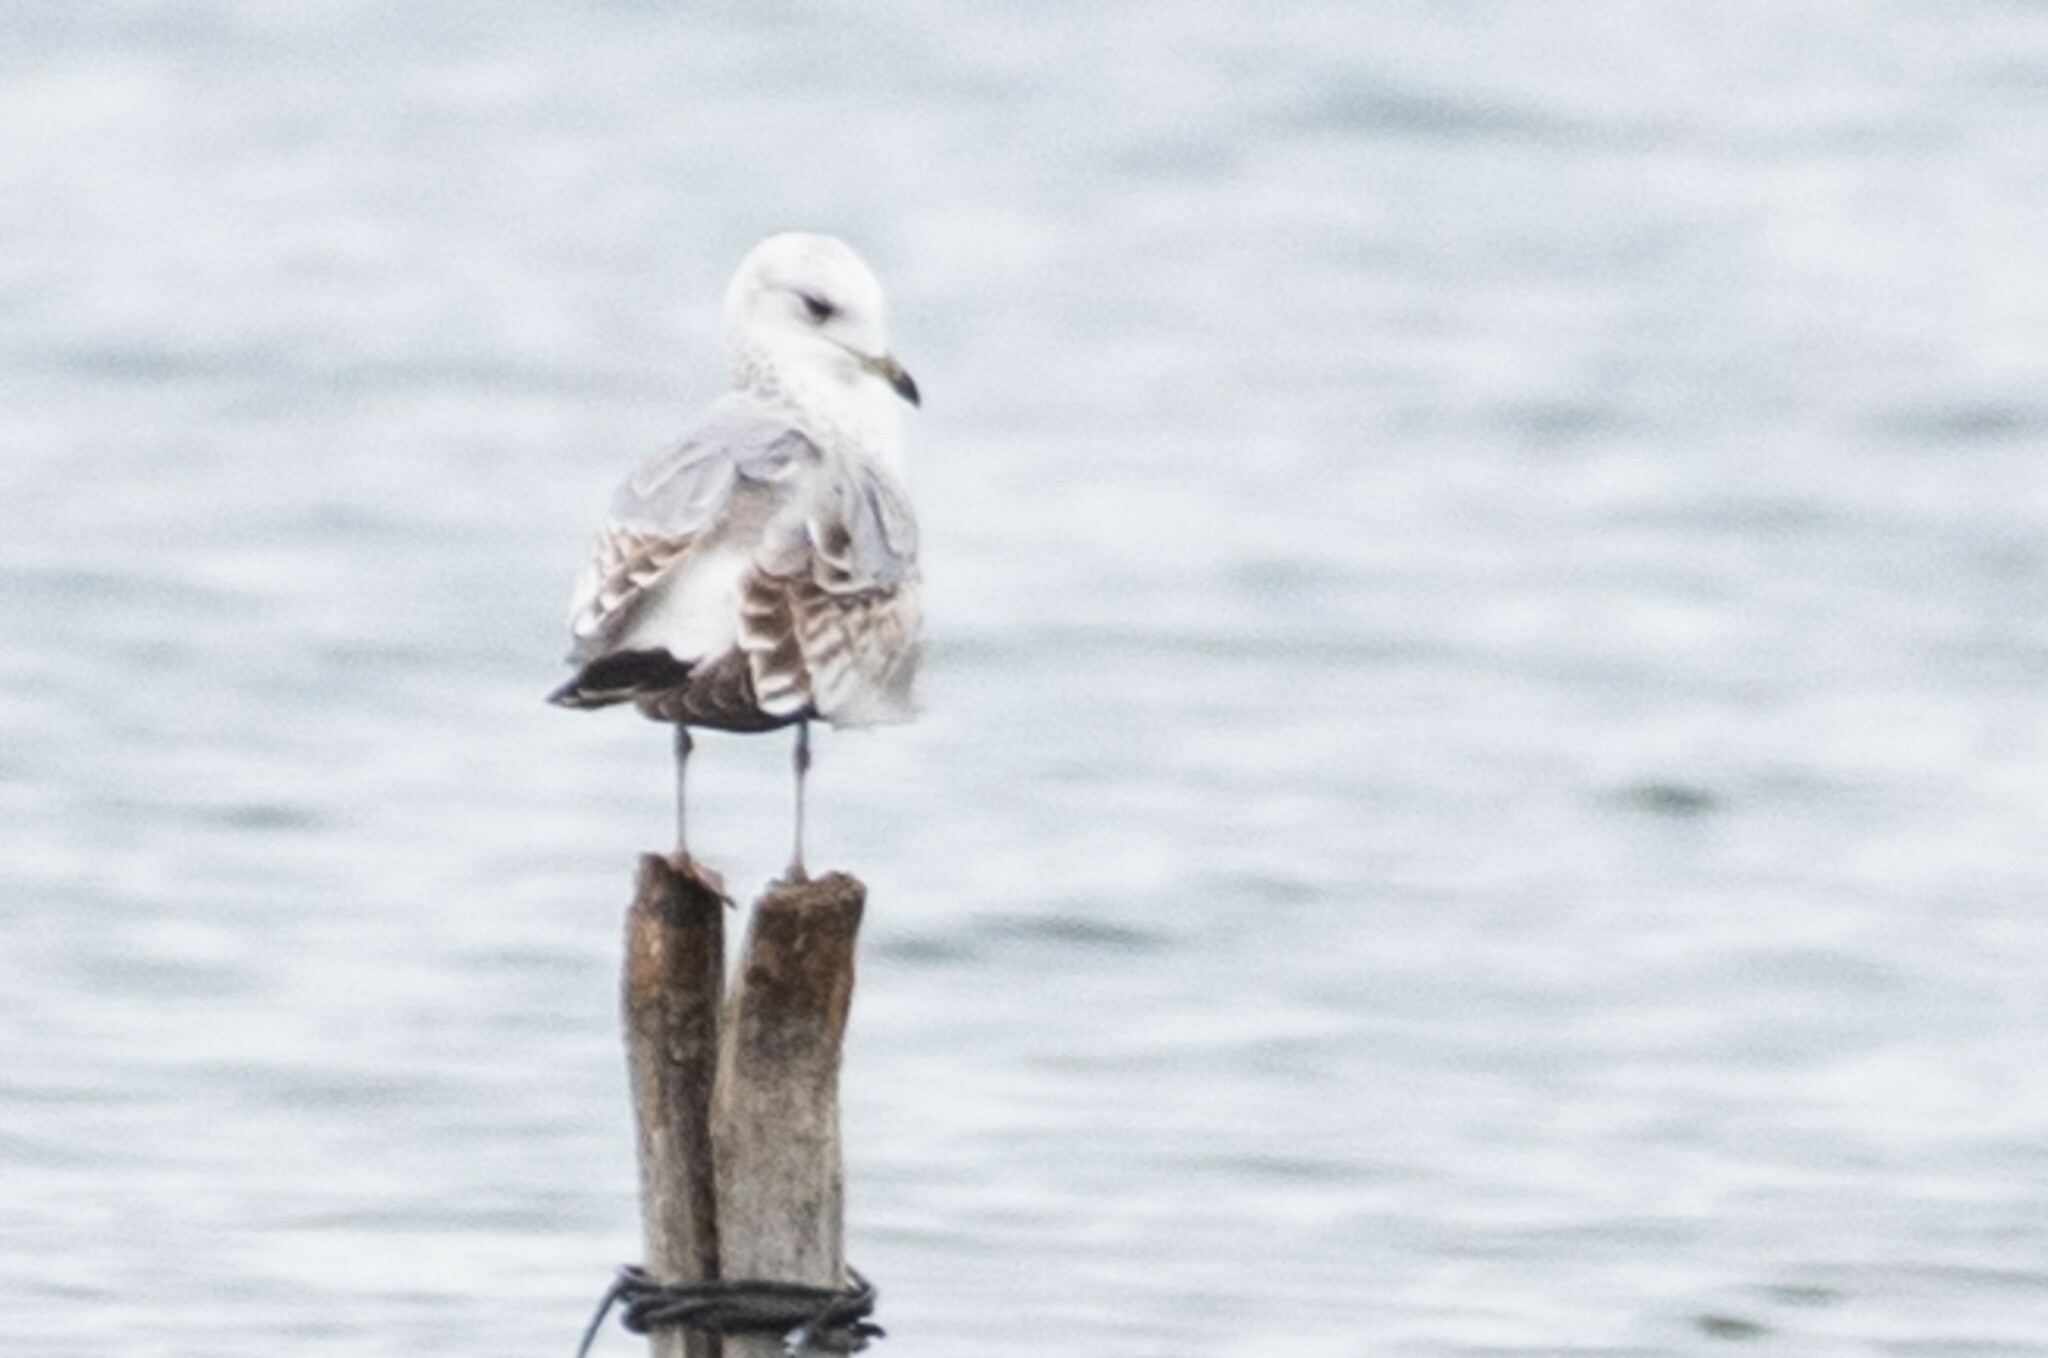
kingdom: Animalia
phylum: Chordata
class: Aves
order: Charadriiformes
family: Laridae
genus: Larus
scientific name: Larus canus
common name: Mew gull
